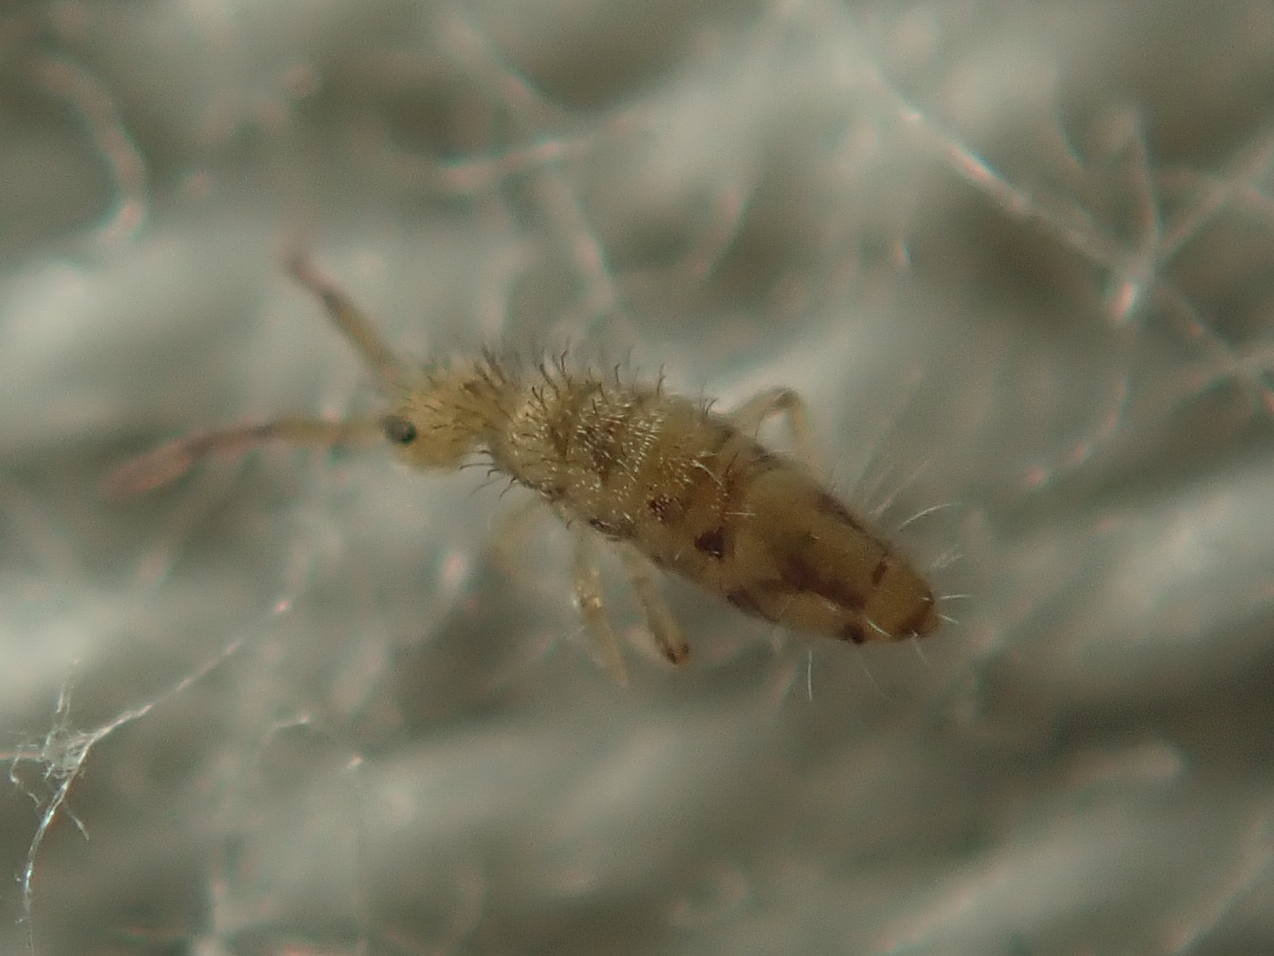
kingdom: Animalia
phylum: Arthropoda
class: Collembola
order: Entomobryomorpha
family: Entomobryidae
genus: Entomobrya
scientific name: Entomobrya nivalis
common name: Cosmopolitan springtail
